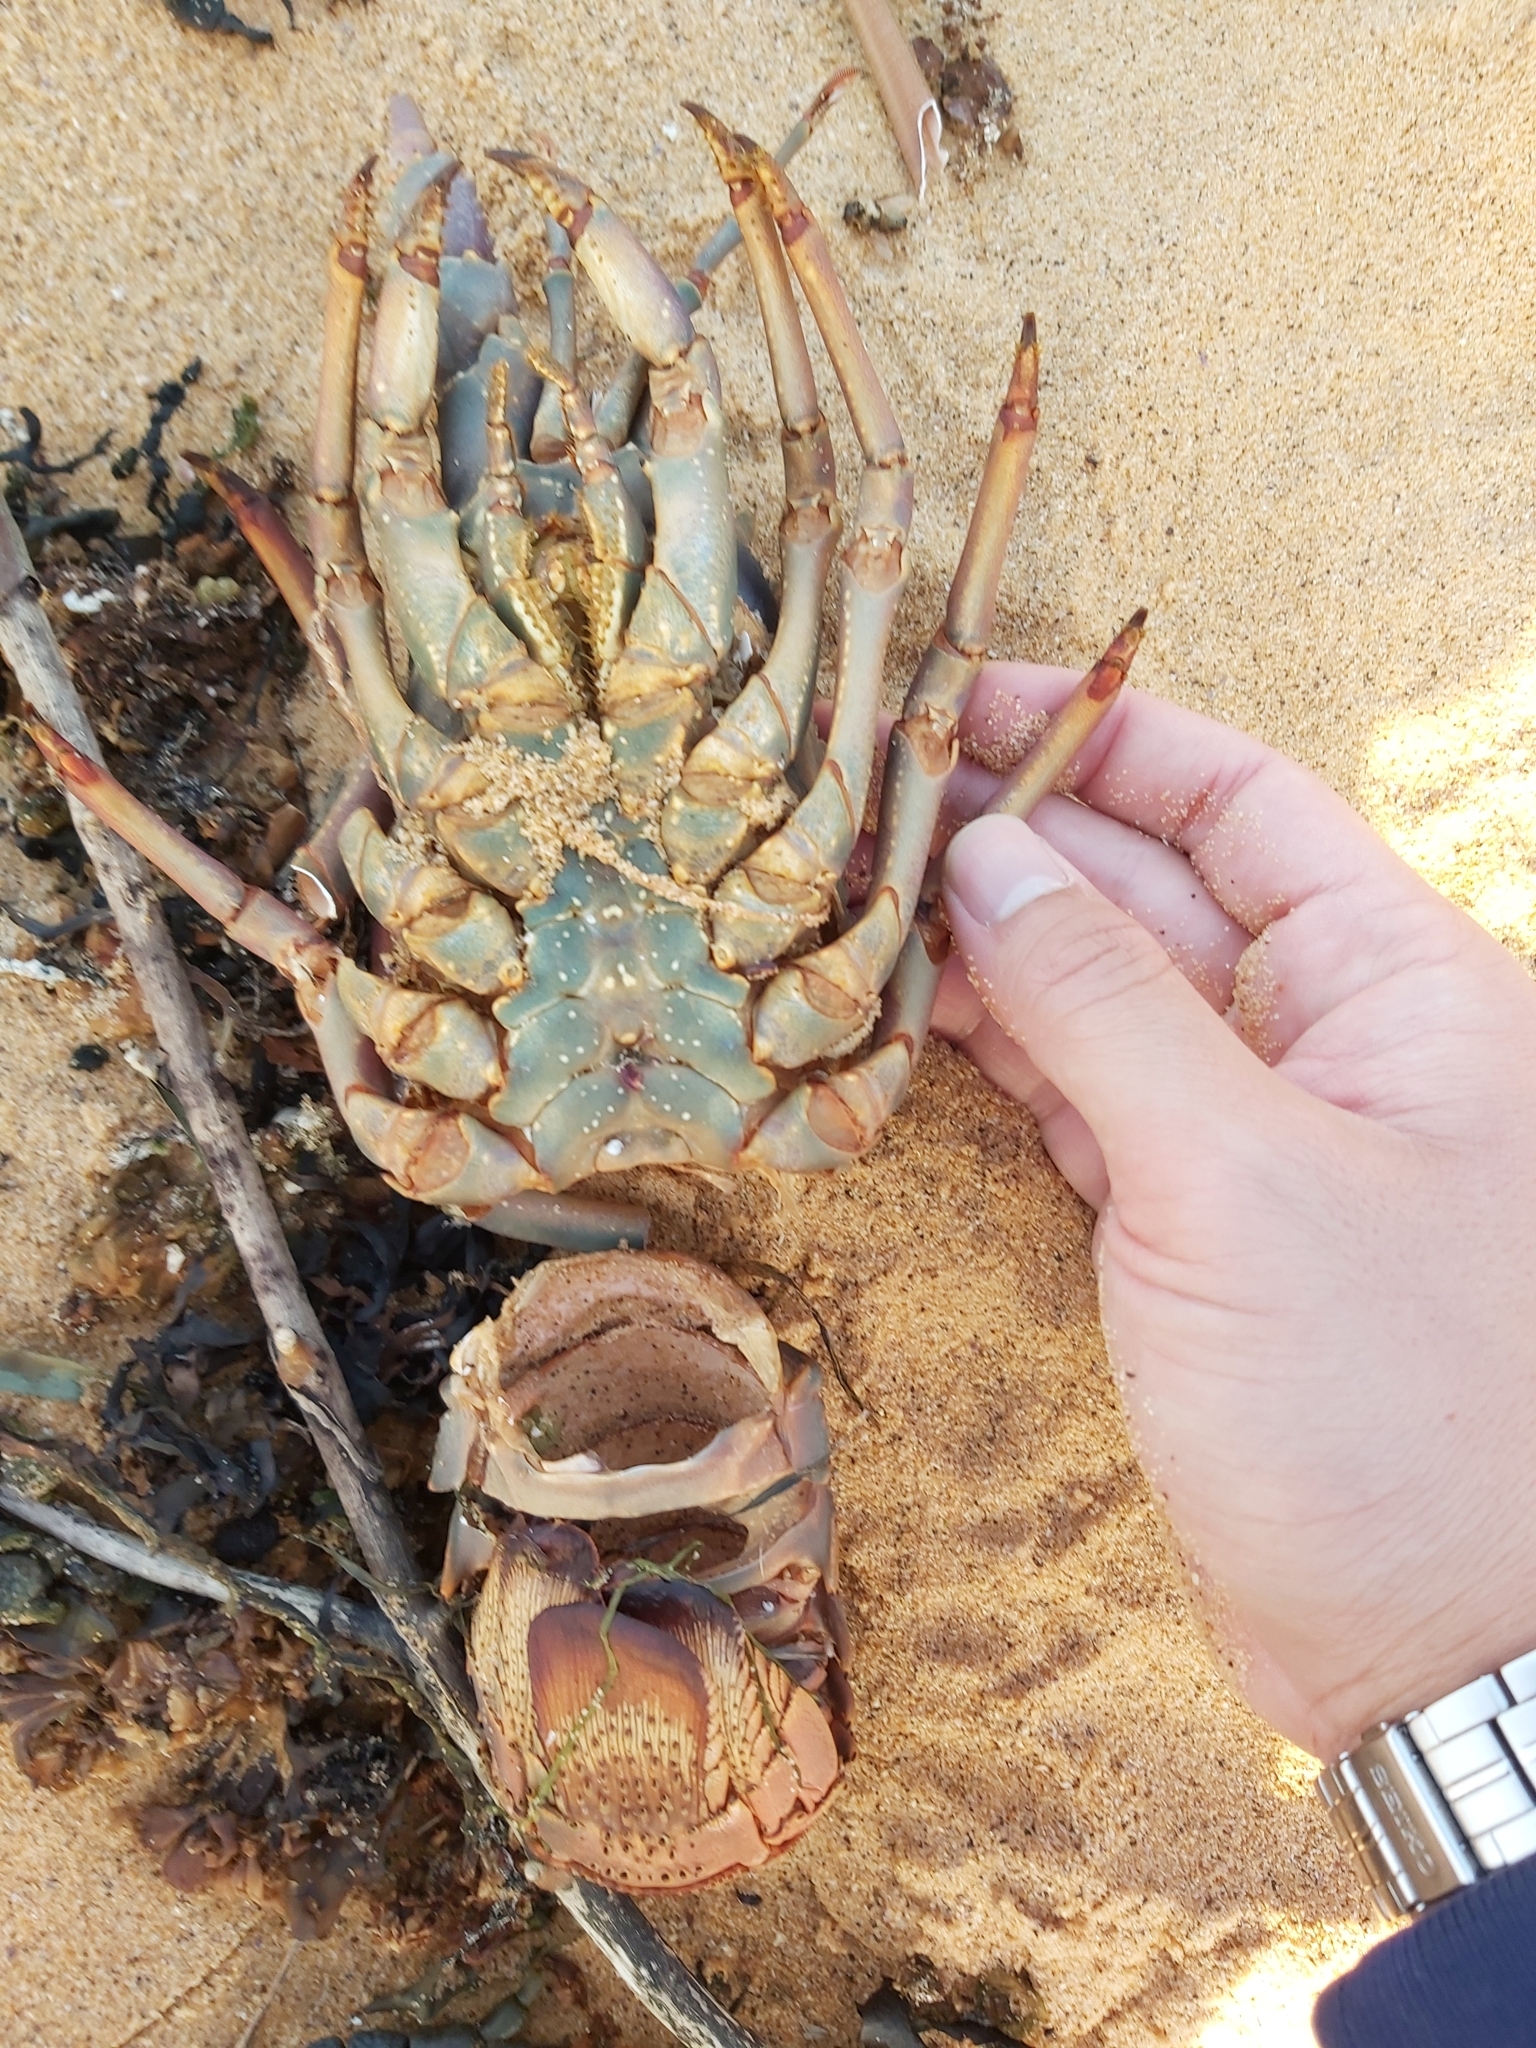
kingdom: Animalia
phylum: Arthropoda
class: Malacostraca
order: Decapoda
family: Palinuridae
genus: Sagmariasus
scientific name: Sagmariasus verreauxi
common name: Green rock lobster
